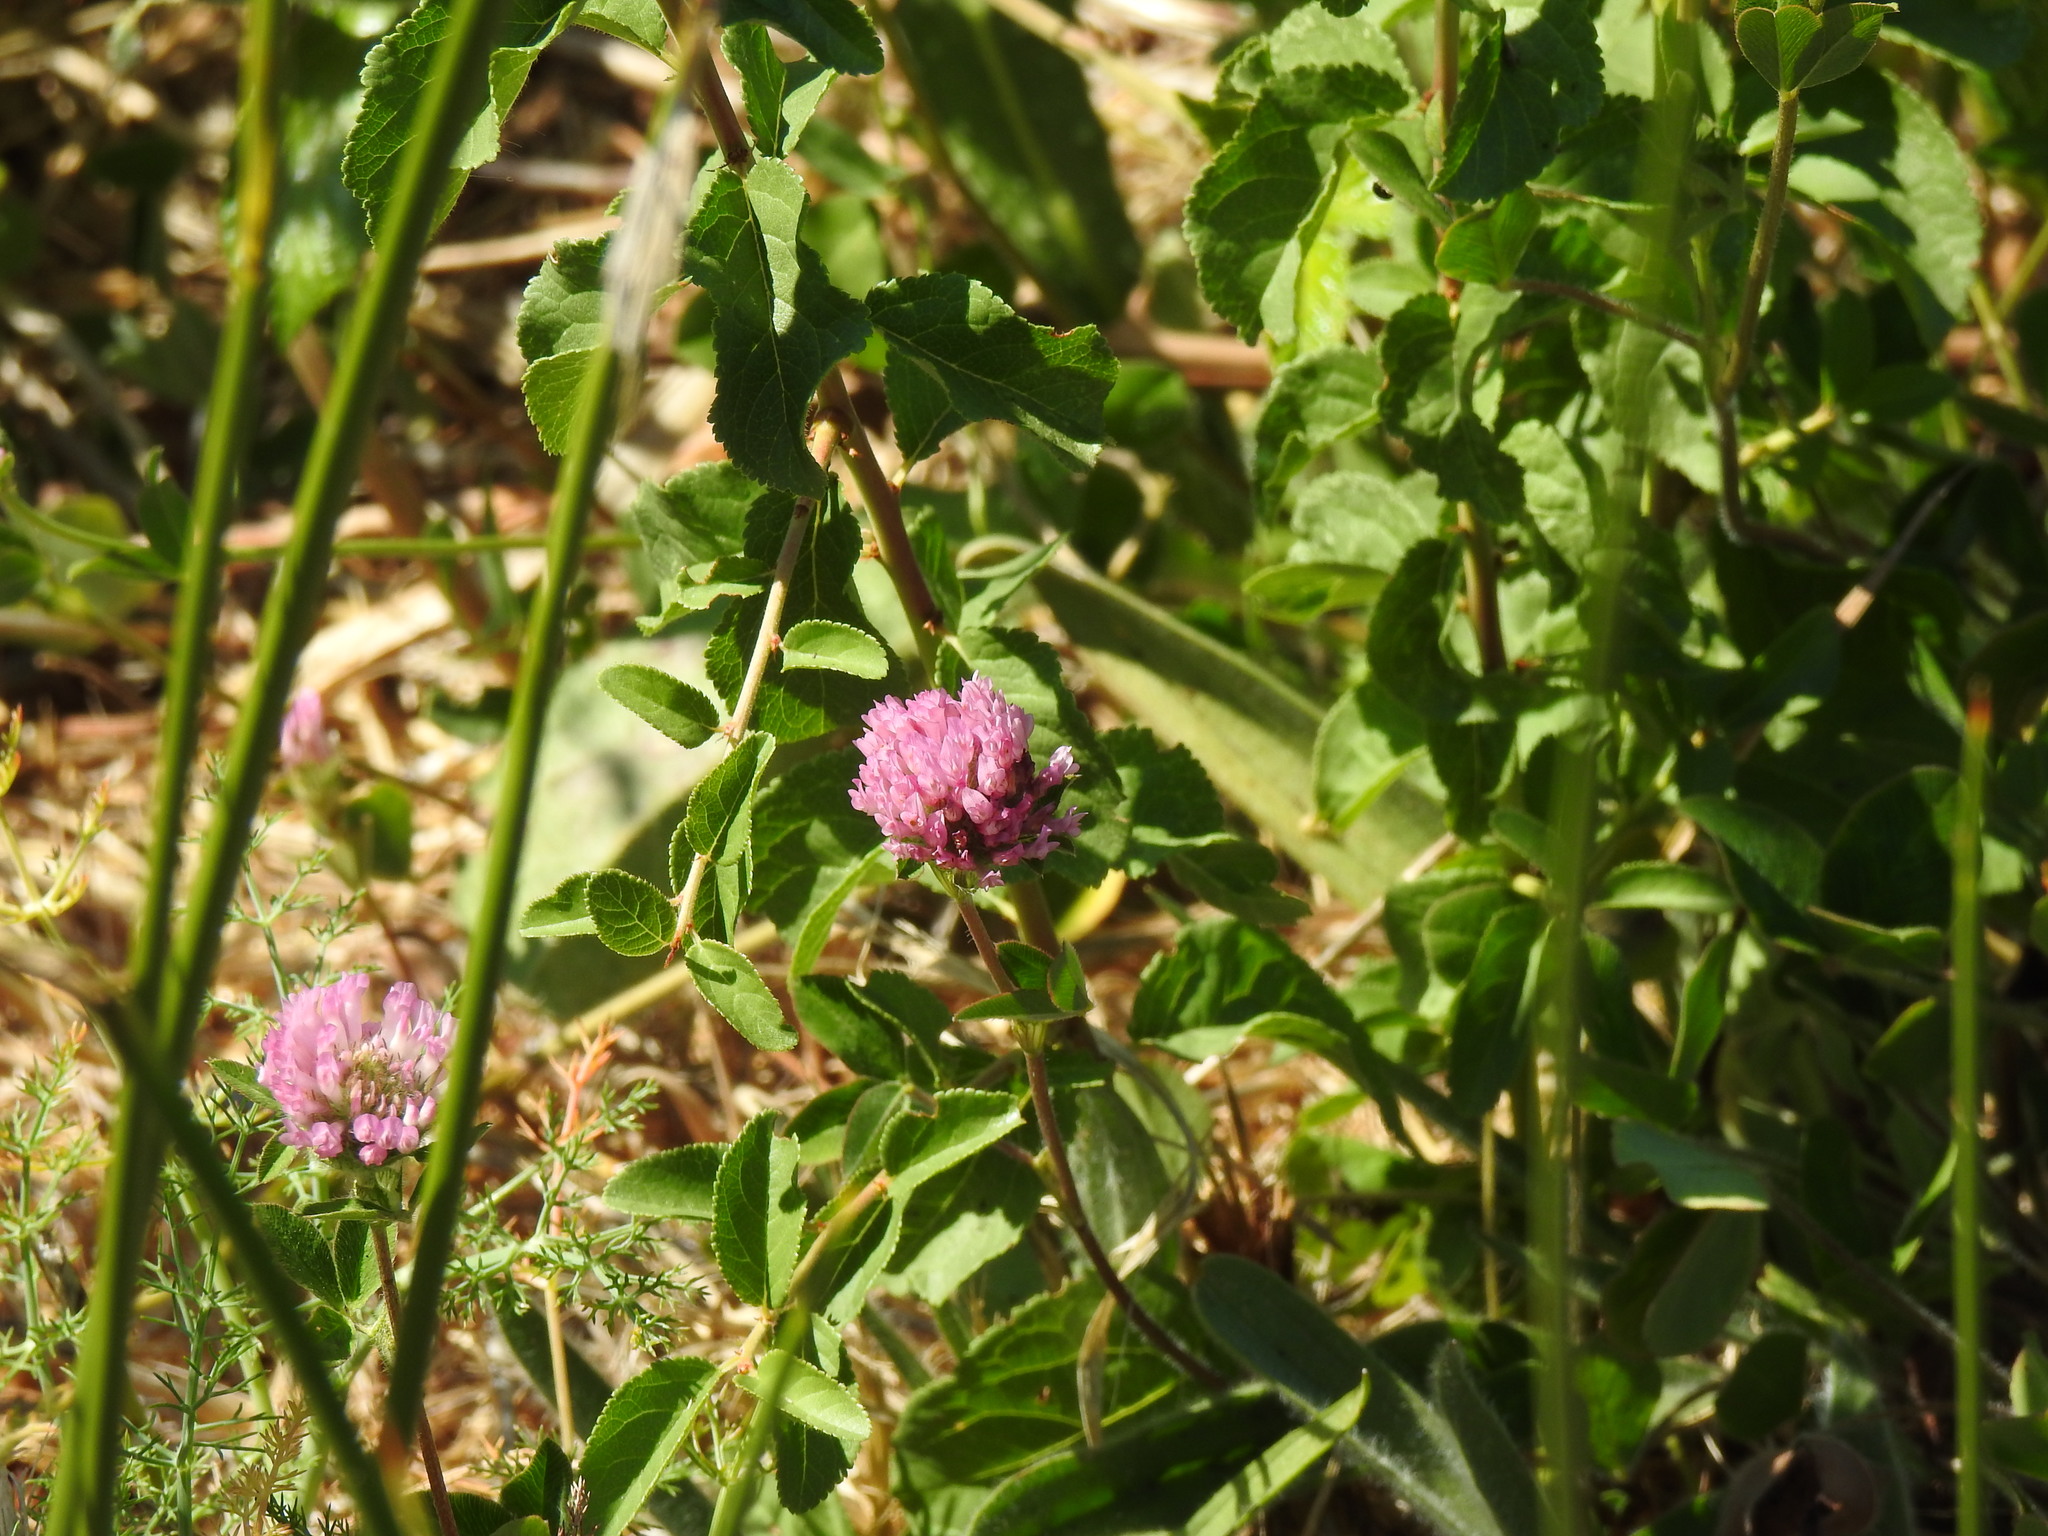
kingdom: Plantae
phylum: Tracheophyta
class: Magnoliopsida
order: Fabales
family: Fabaceae
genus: Trifolium
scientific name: Trifolium pratense
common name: Red clover
